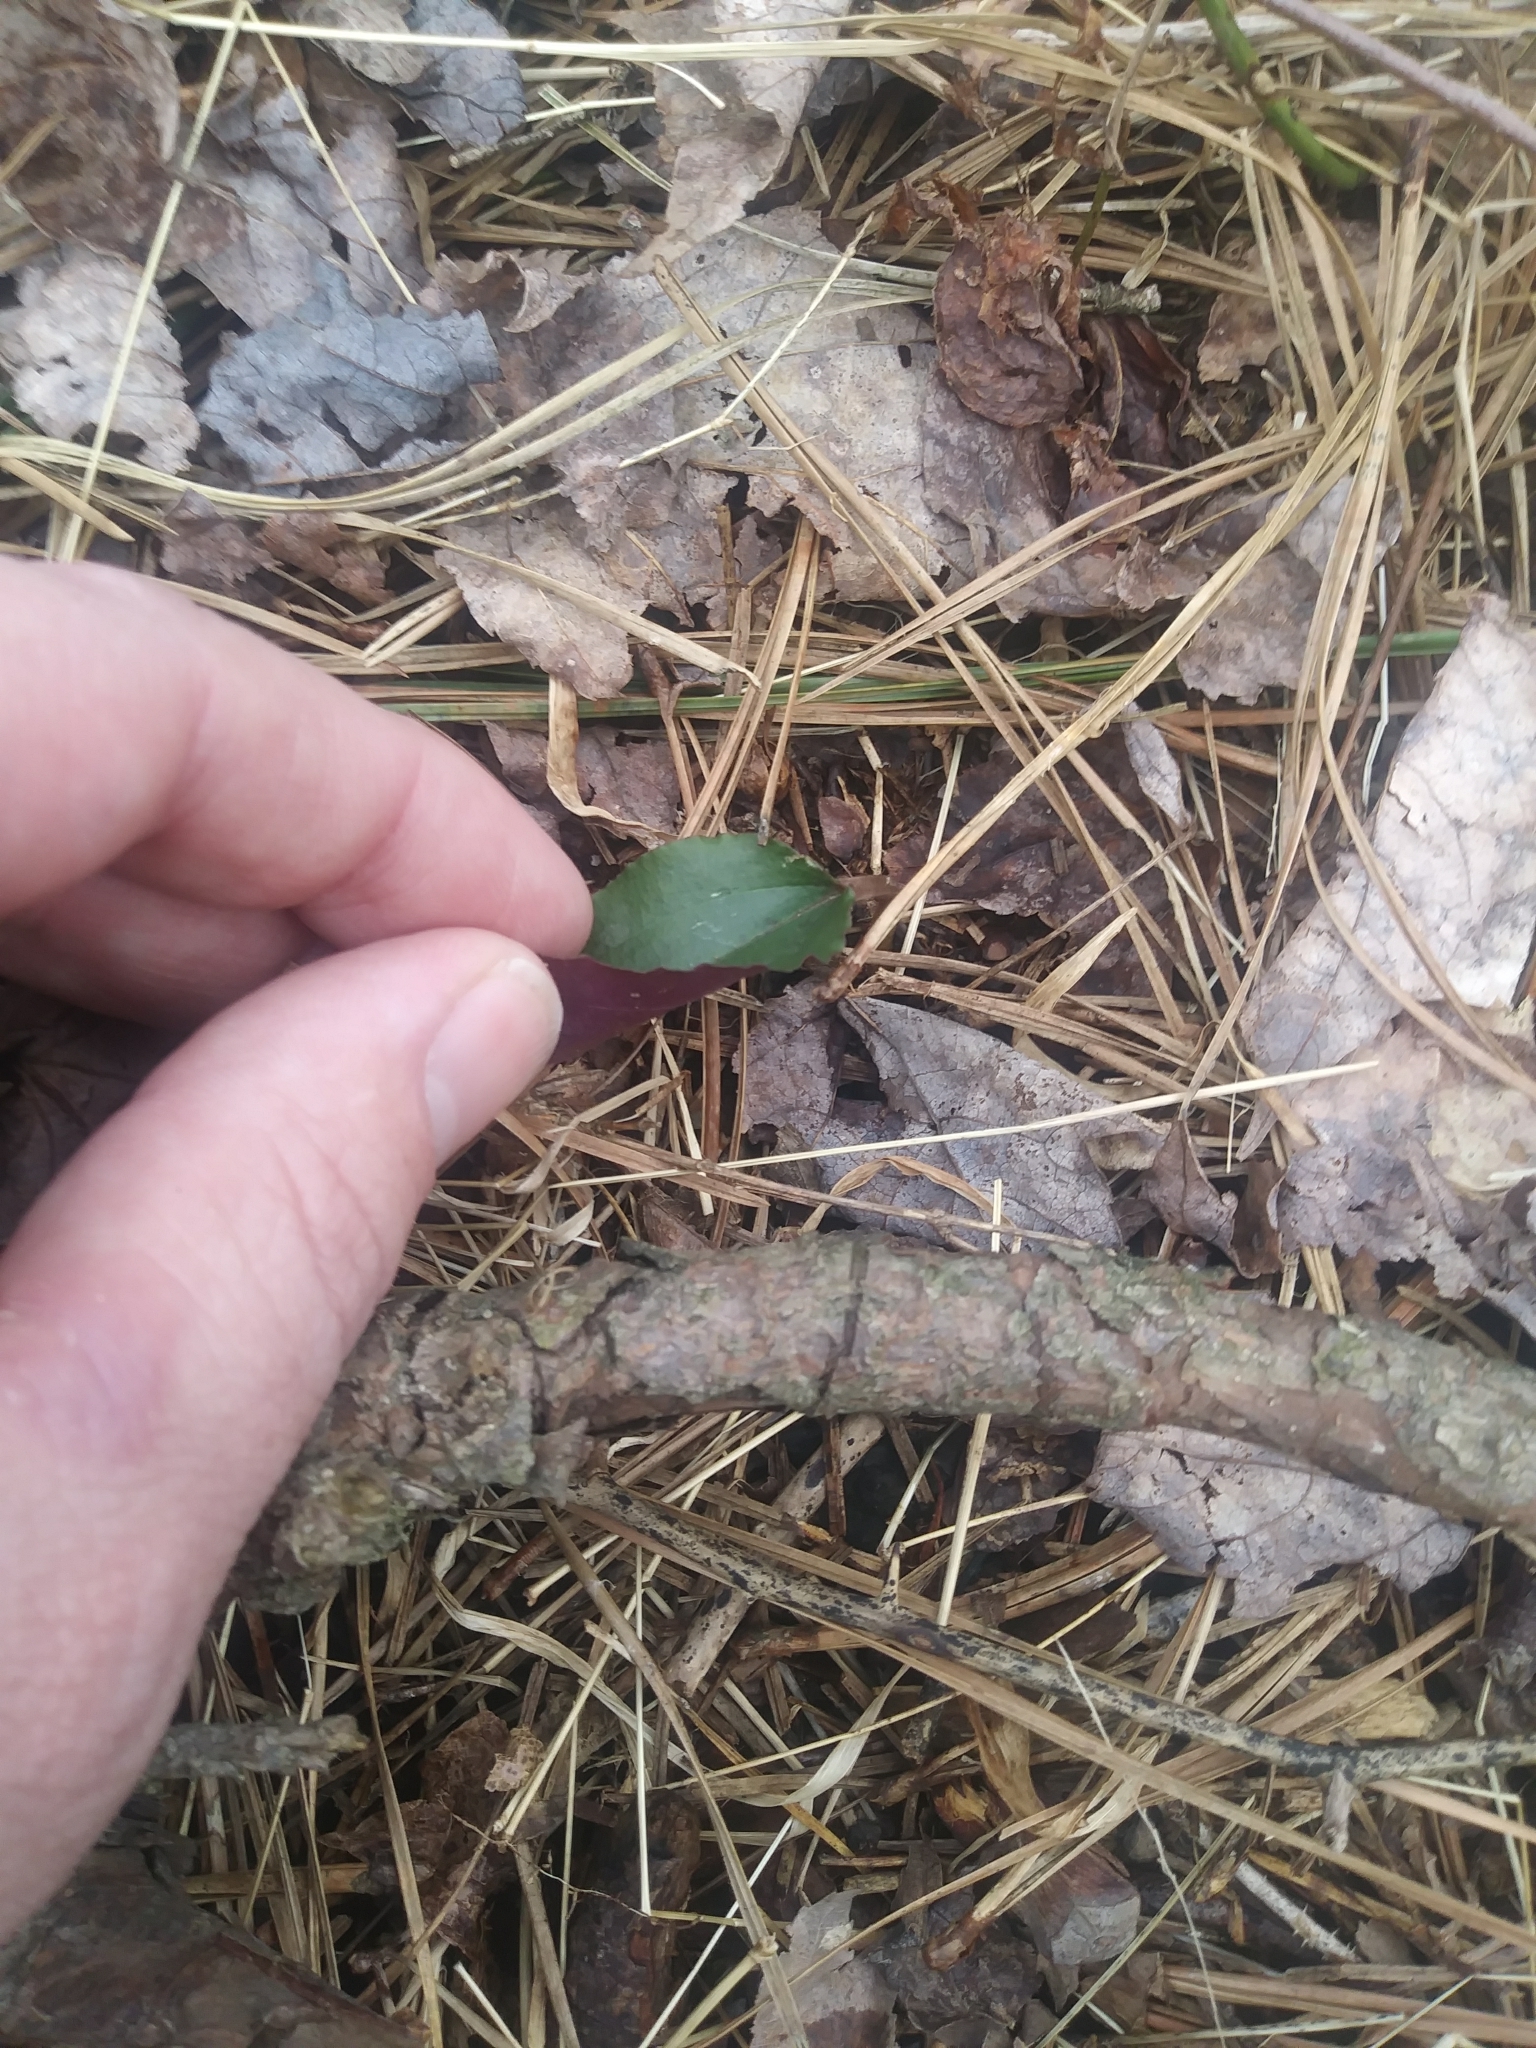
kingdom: Plantae
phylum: Tracheophyta
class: Liliopsida
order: Asparagales
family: Orchidaceae
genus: Tipularia
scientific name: Tipularia discolor
